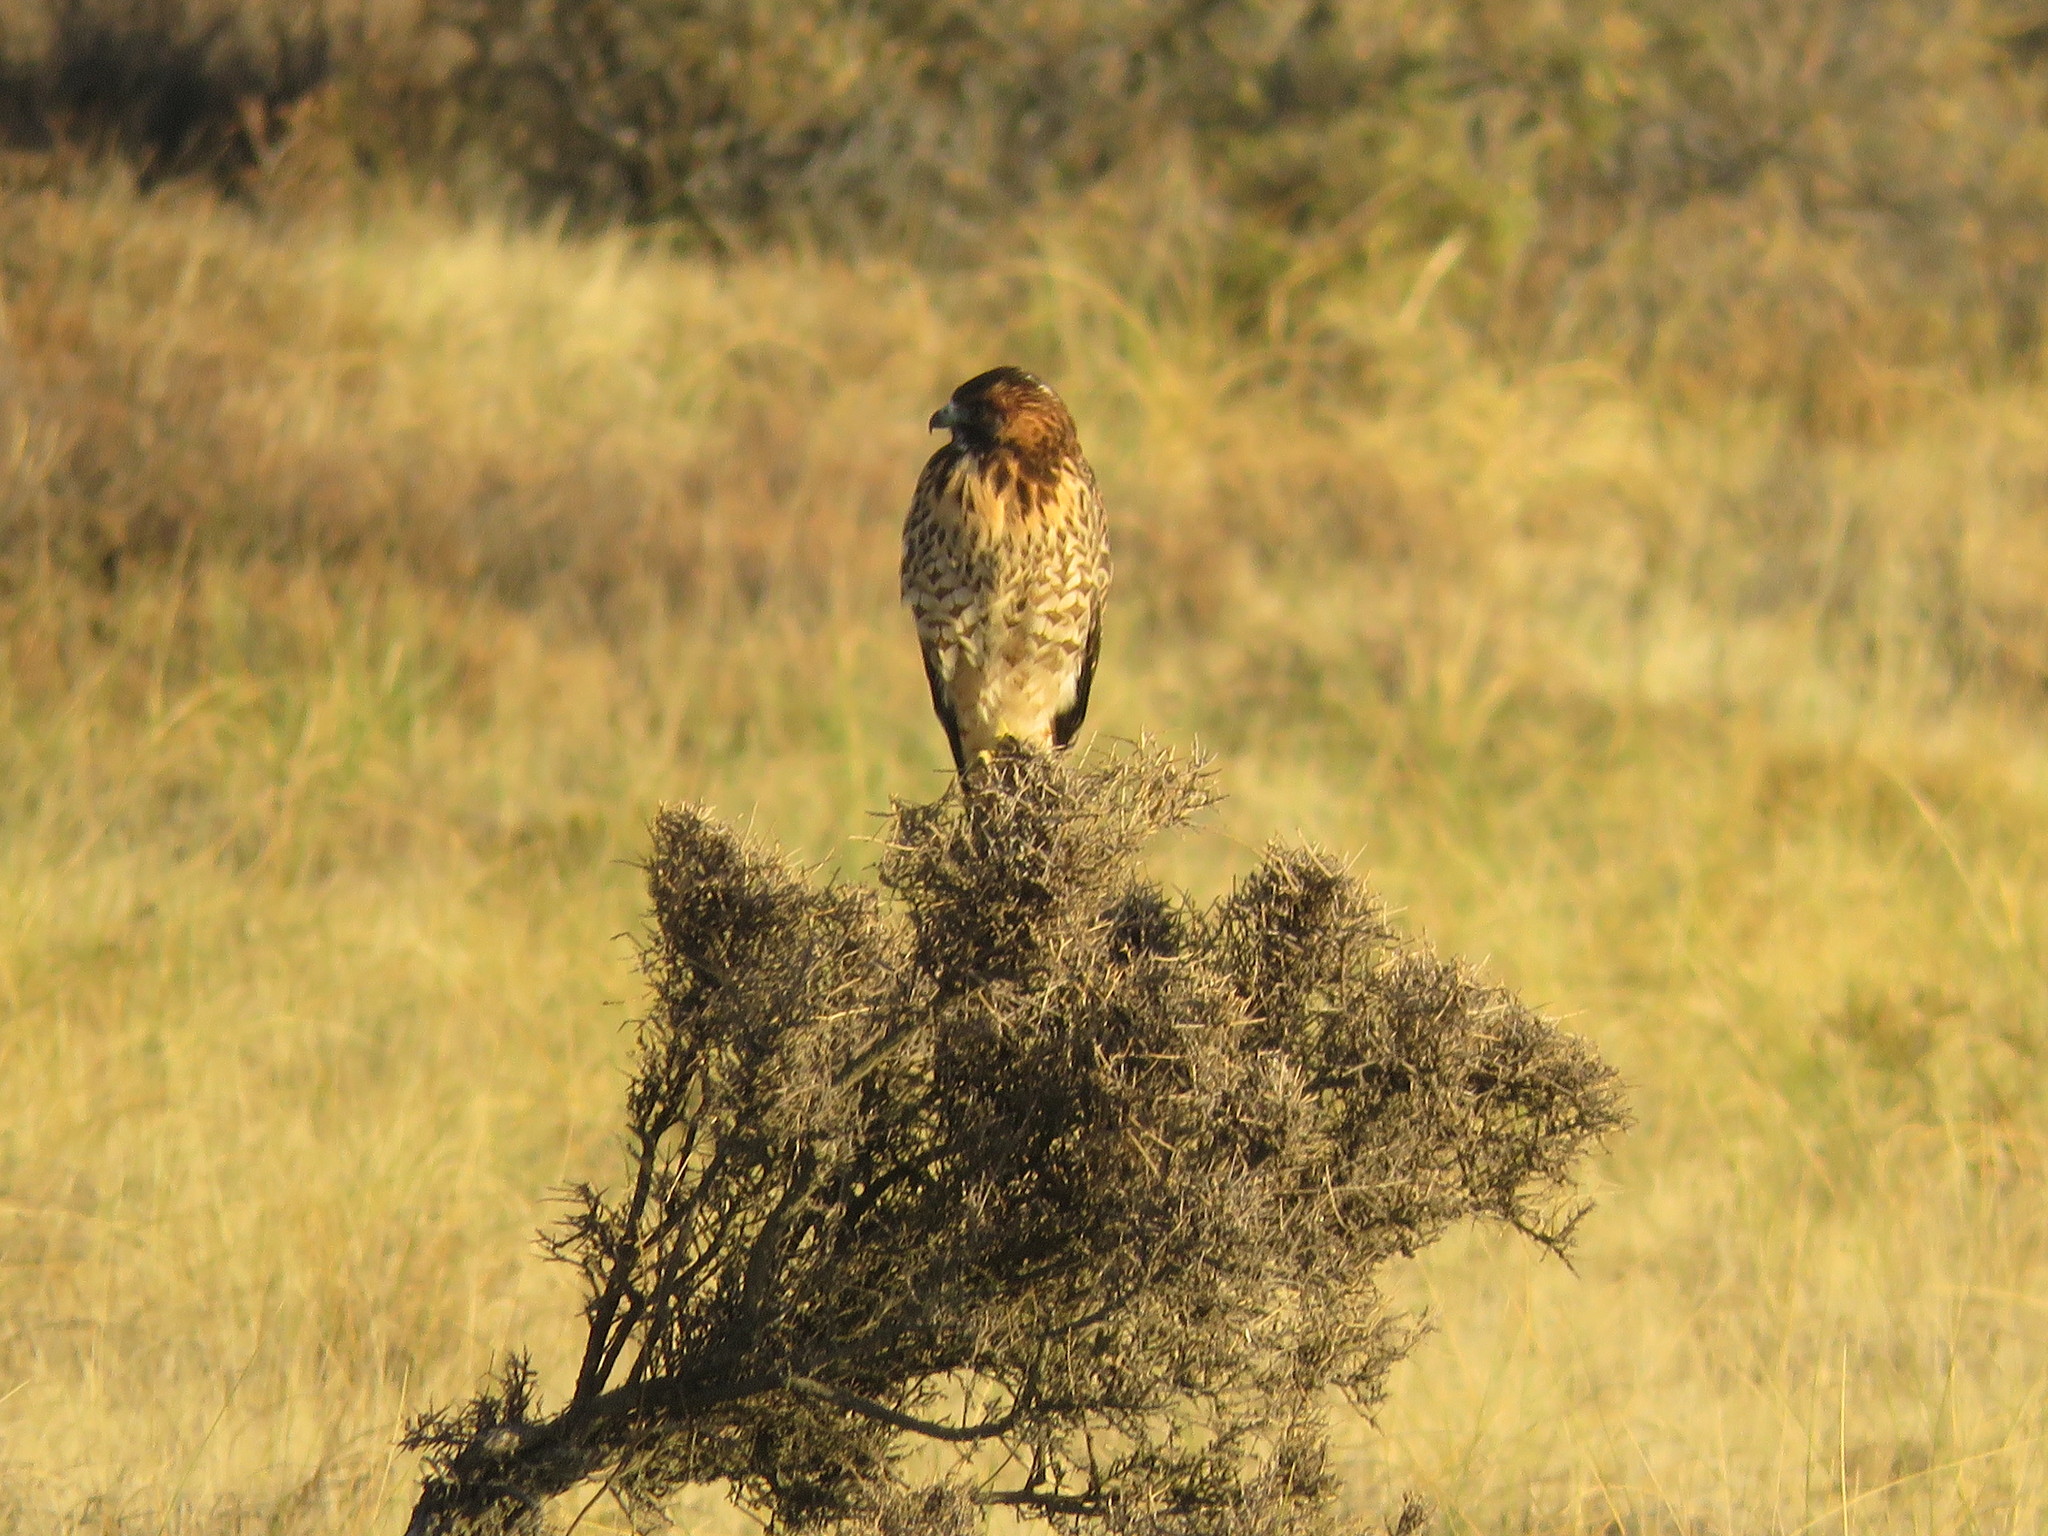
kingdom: Animalia
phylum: Chordata
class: Aves
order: Accipitriformes
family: Accipitridae
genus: Buteo
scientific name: Buteo polyosoma
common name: Variable hawk
